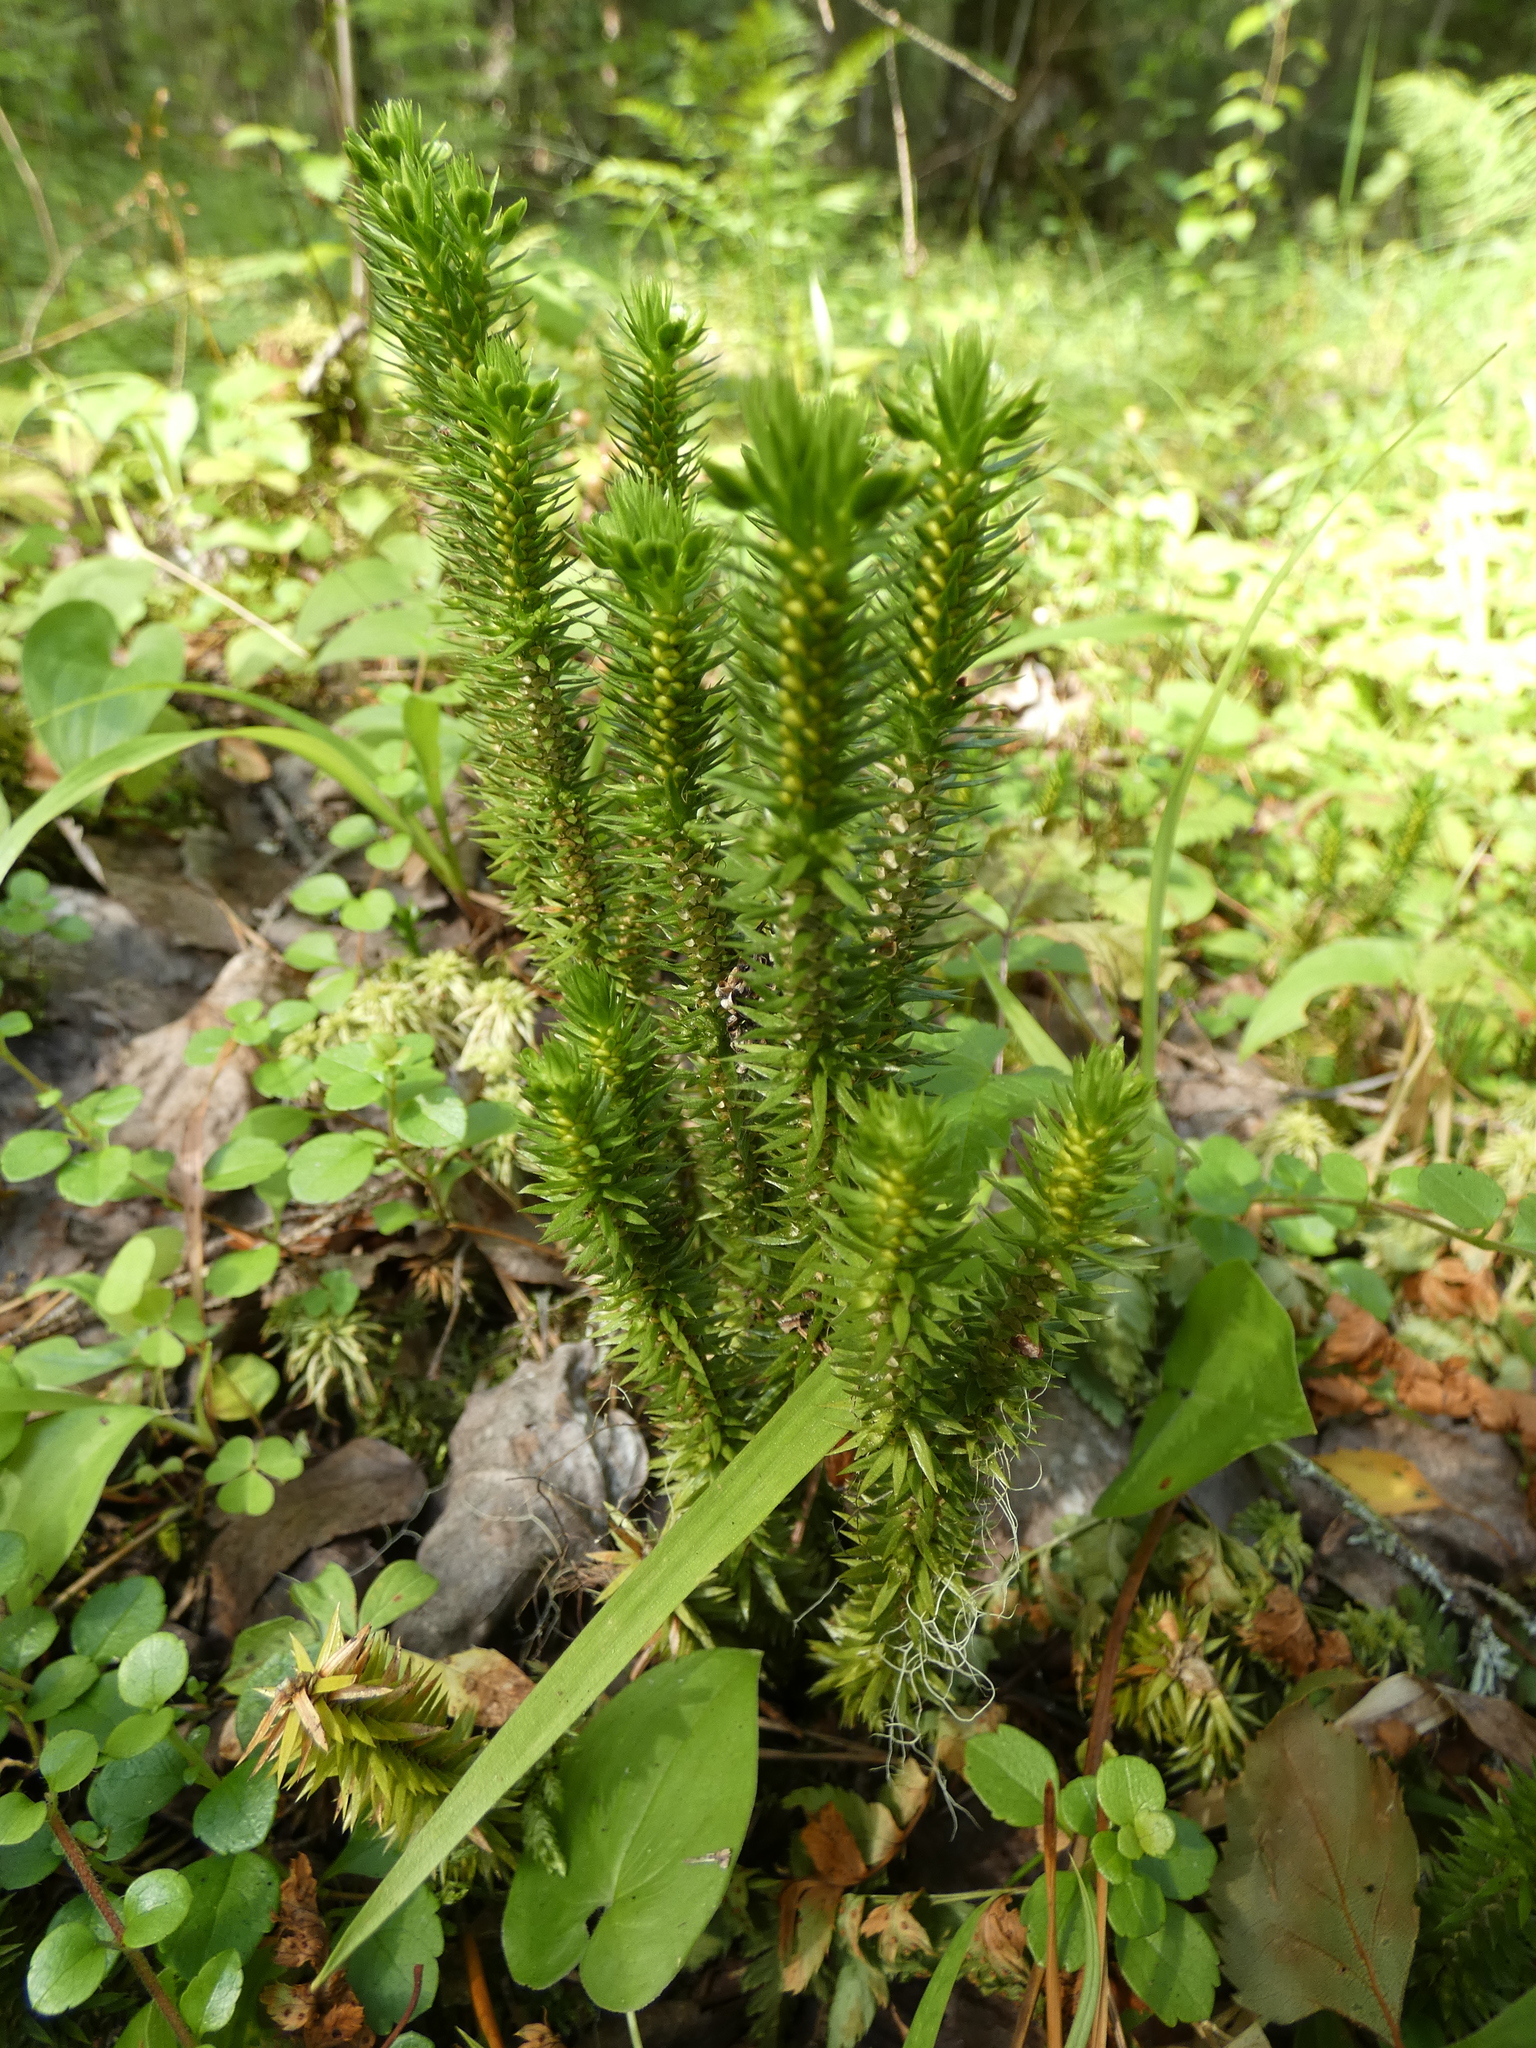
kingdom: Plantae
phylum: Tracheophyta
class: Lycopodiopsida
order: Lycopodiales
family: Lycopodiaceae
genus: Huperzia
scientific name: Huperzia selago
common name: Northern firmoss
